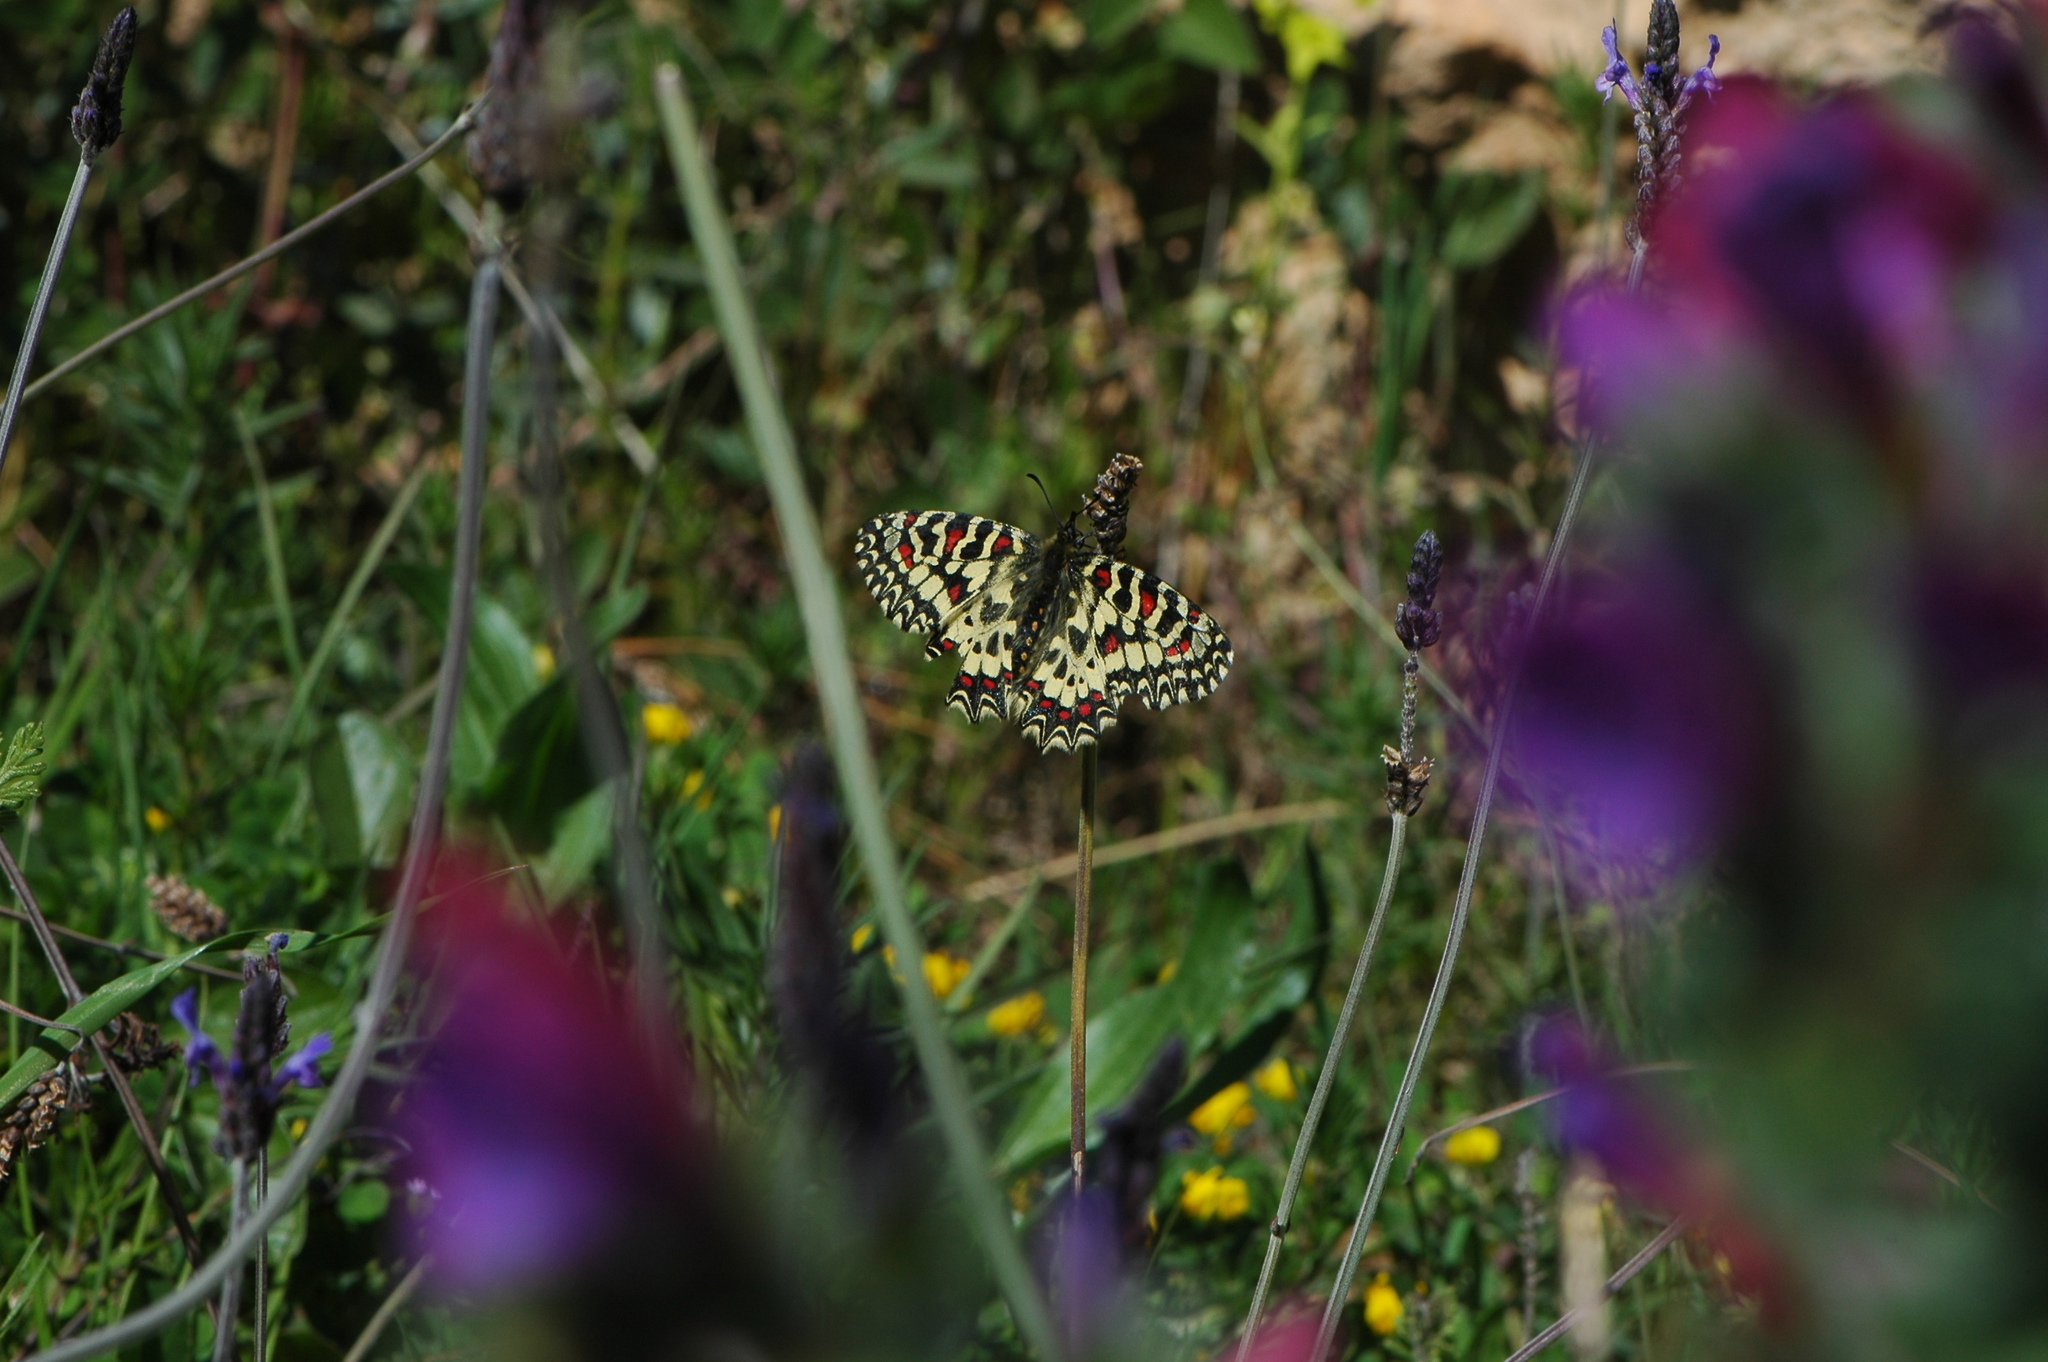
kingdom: Animalia
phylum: Arthropoda
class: Insecta
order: Lepidoptera
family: Papilionidae
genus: Zerynthia
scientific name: Zerynthia rumina
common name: Spanish festoon
